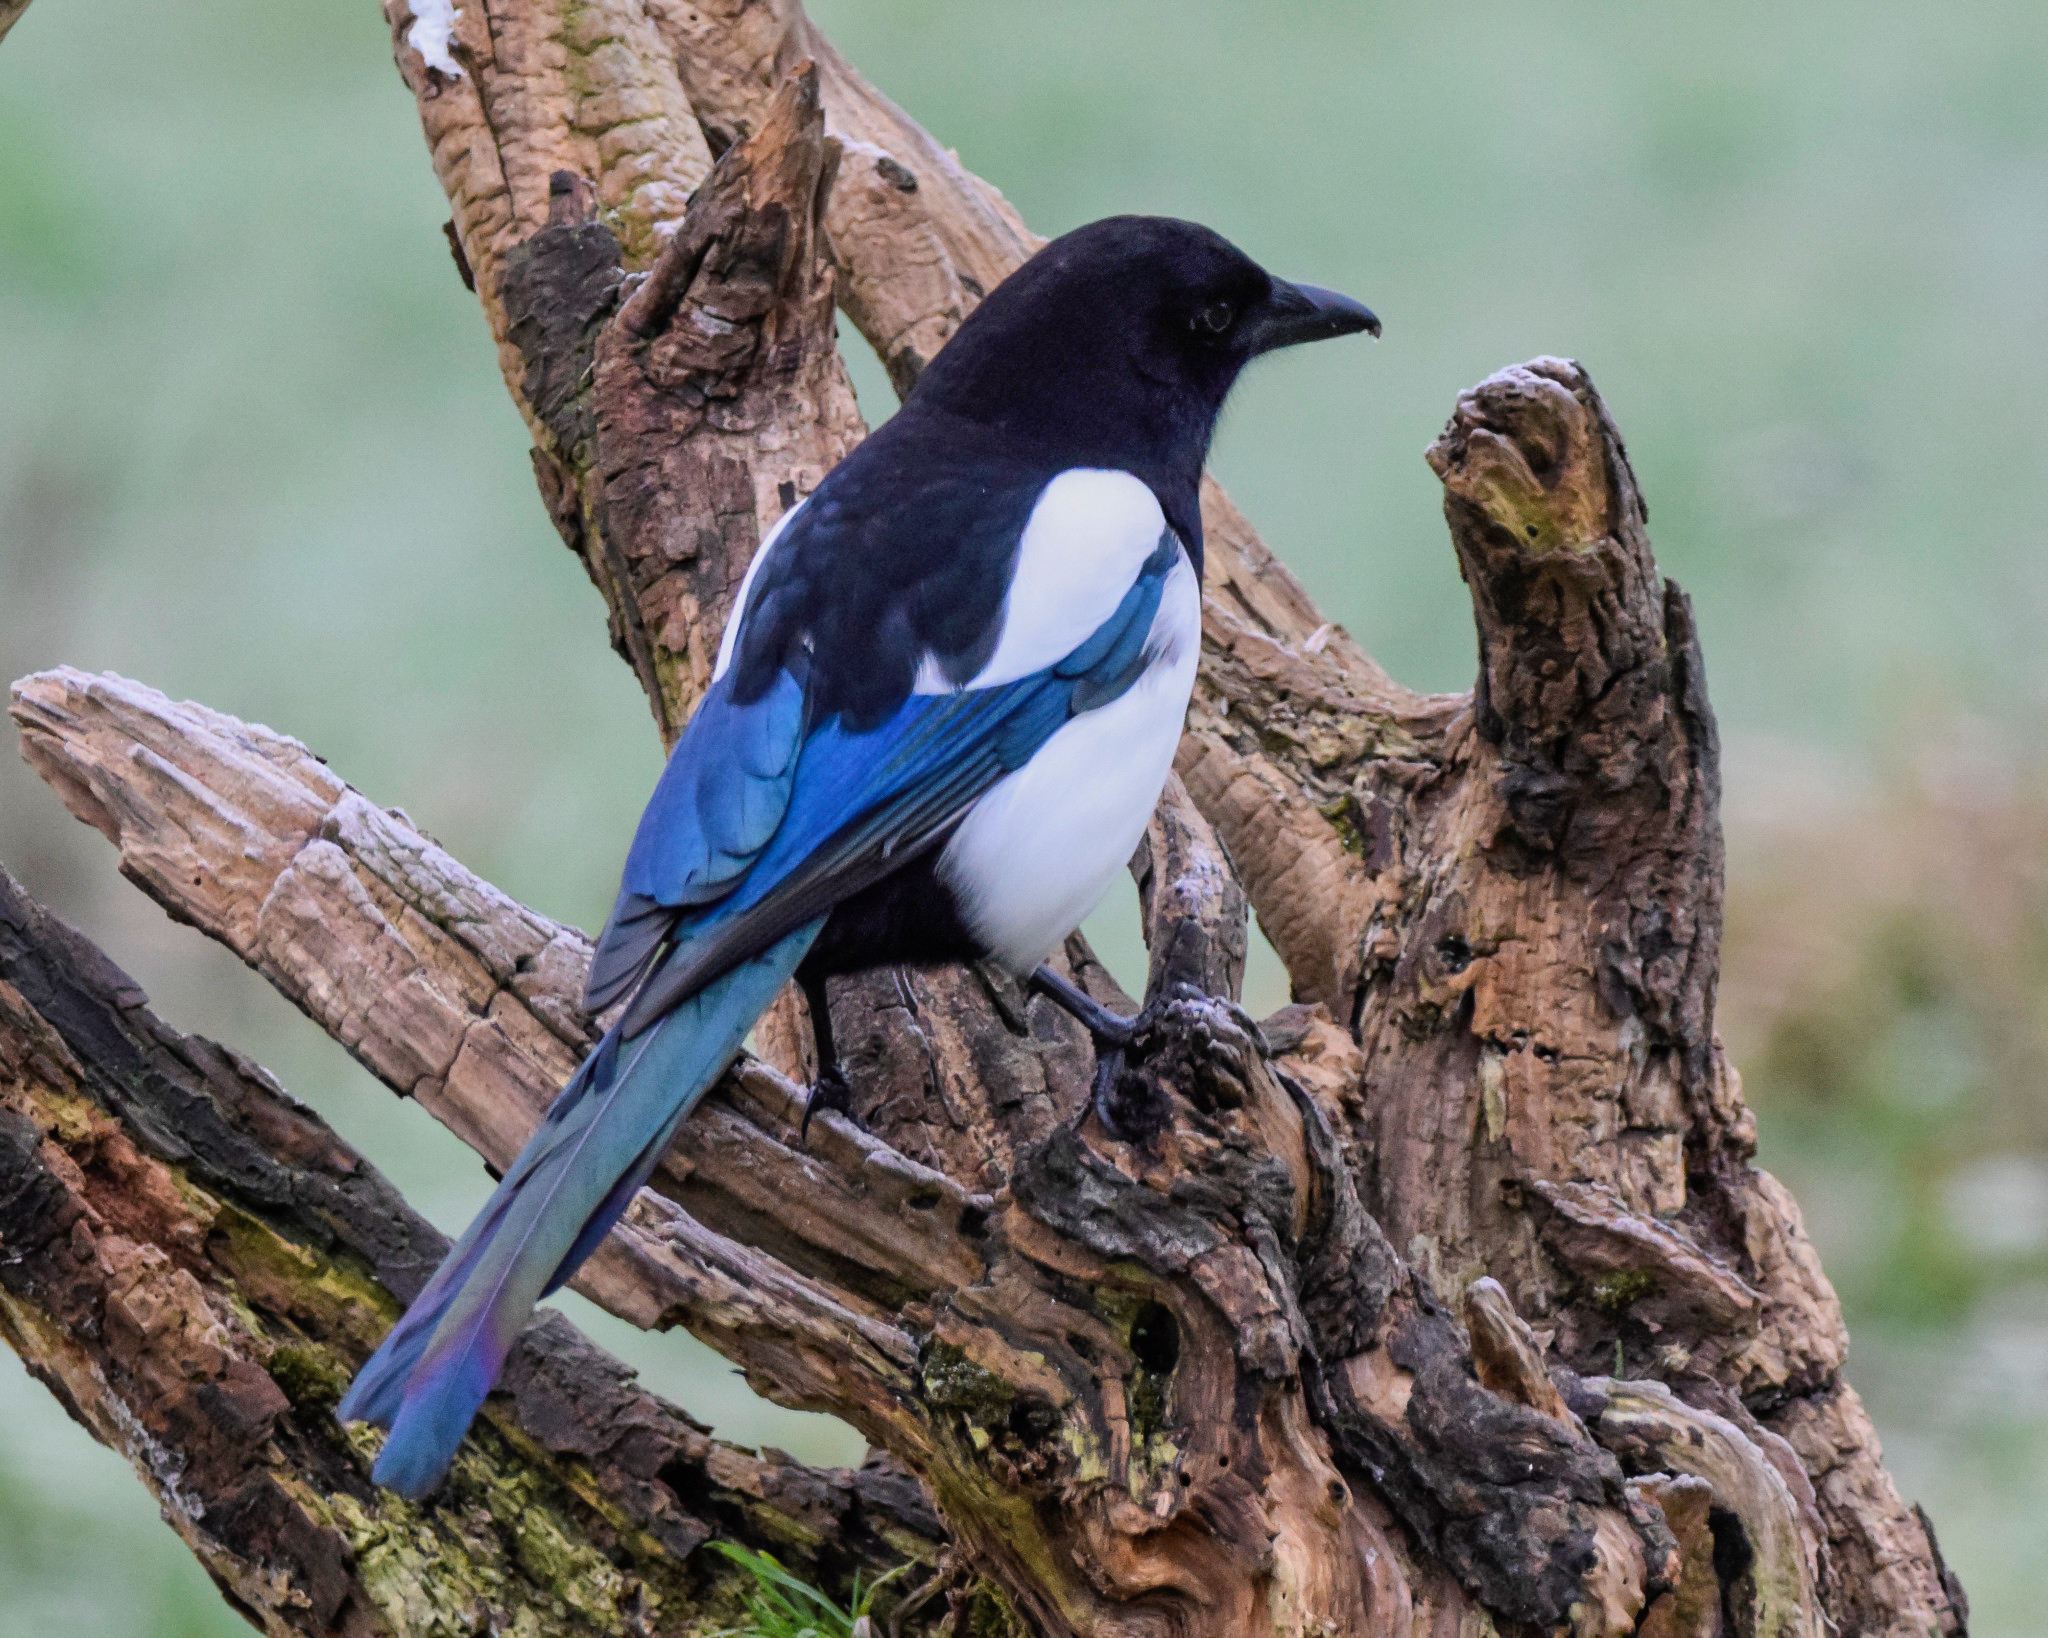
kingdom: Animalia
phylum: Chordata
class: Aves
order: Passeriformes
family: Corvidae
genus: Pica
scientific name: Pica pica
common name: Eurasian magpie
